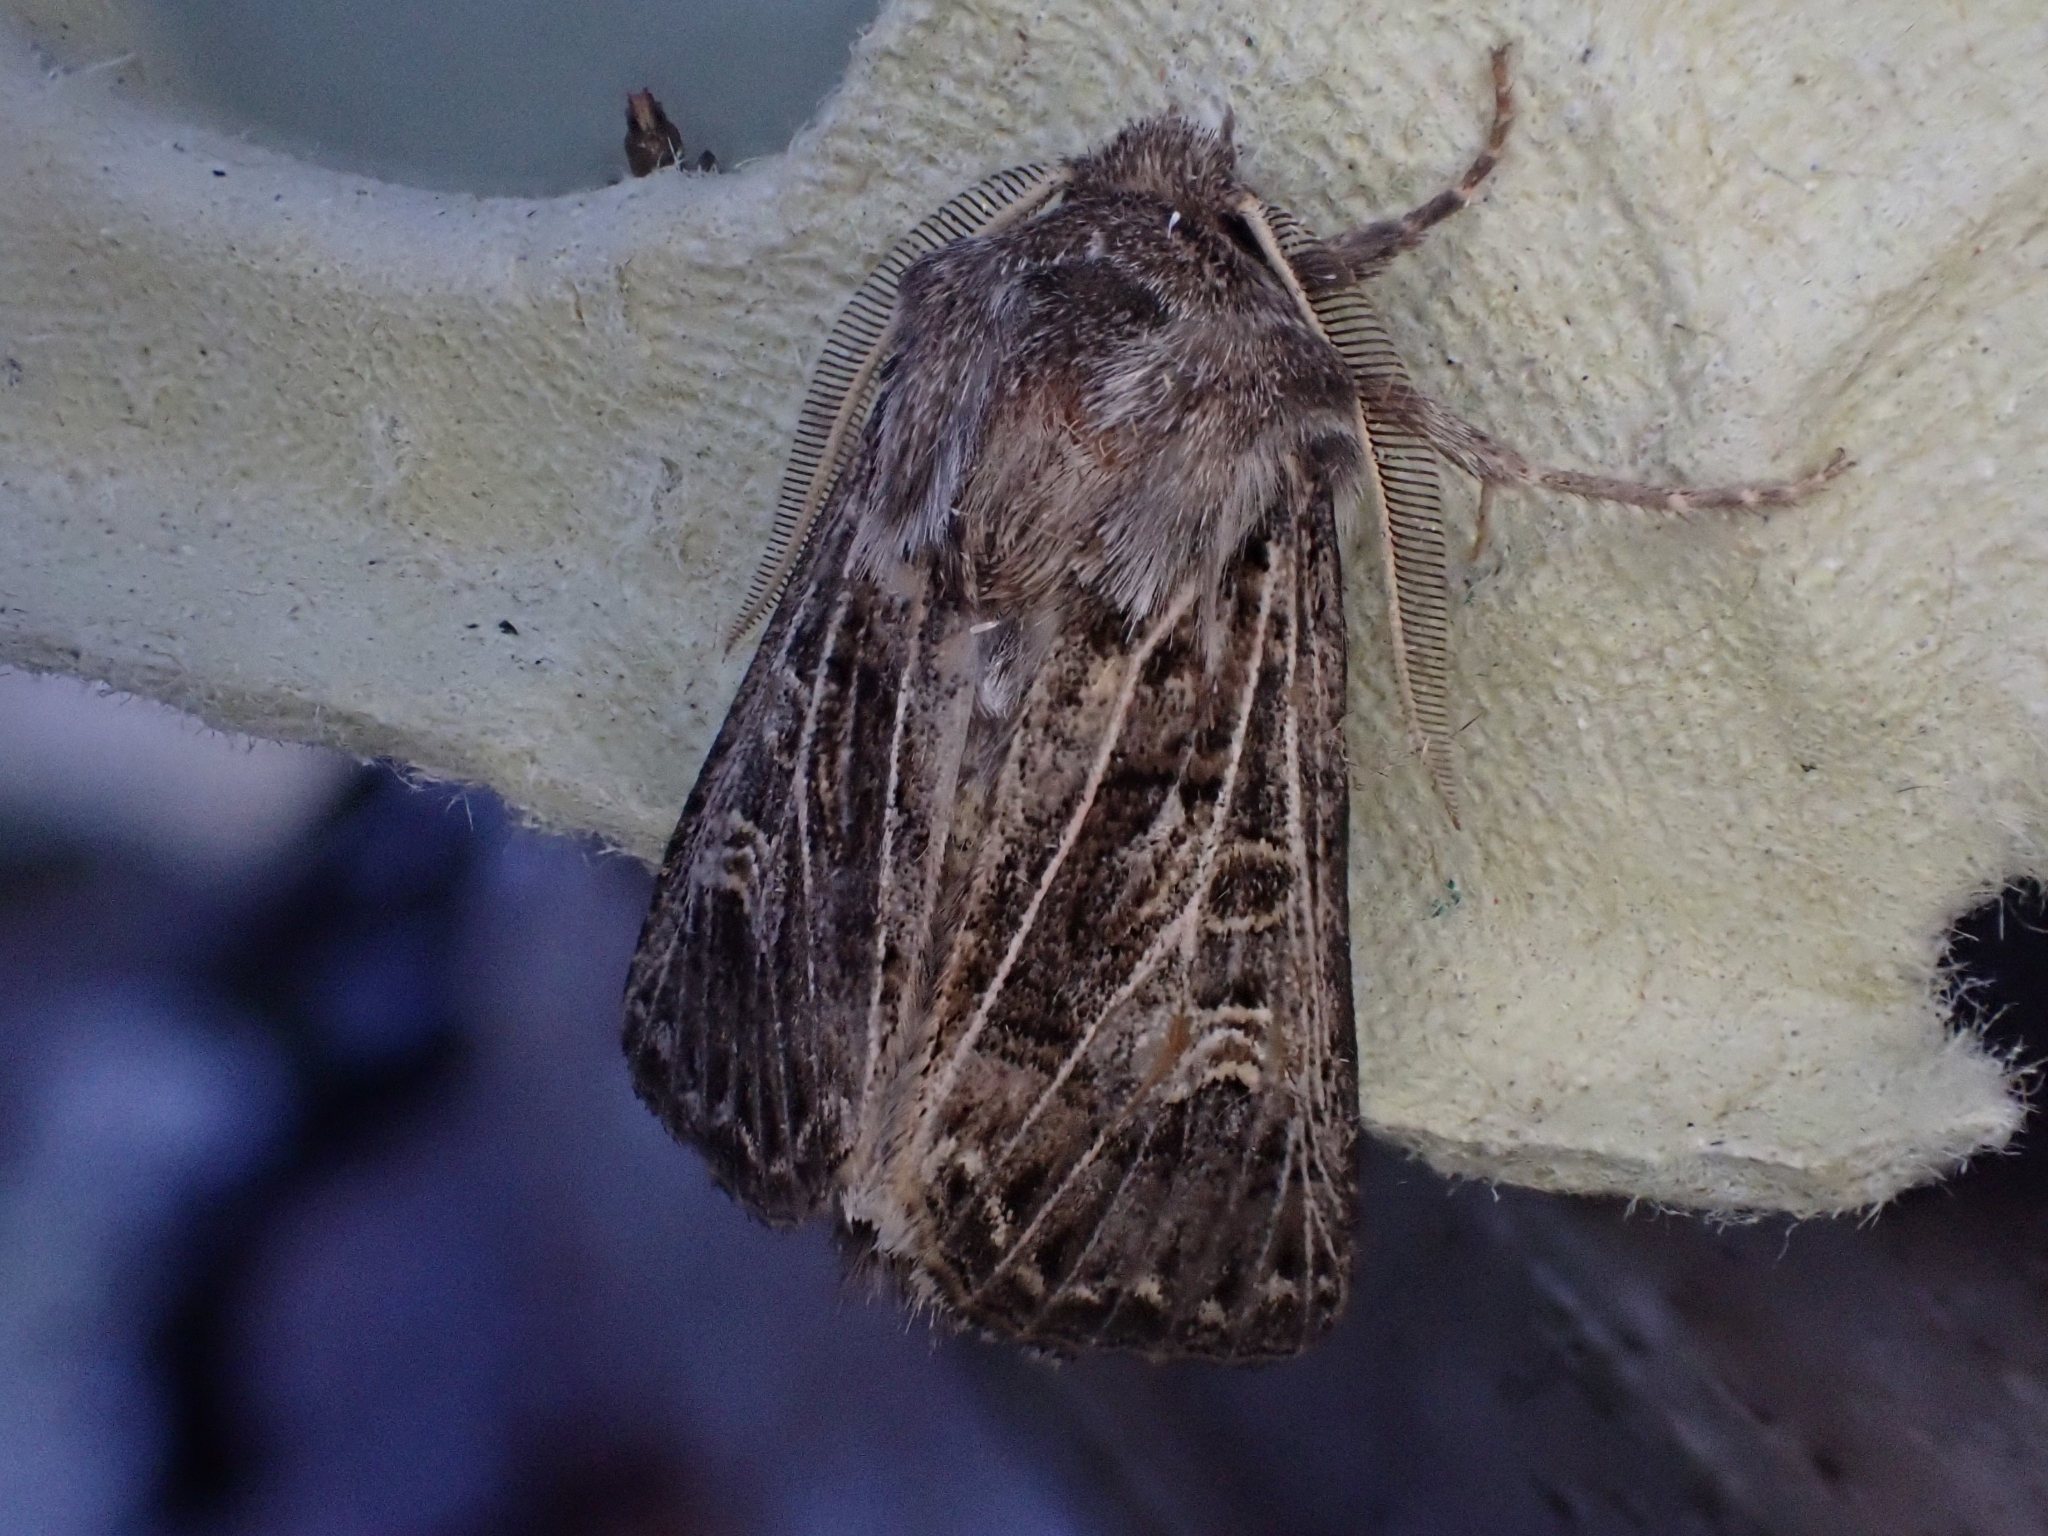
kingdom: Animalia
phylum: Arthropoda
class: Insecta
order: Lepidoptera
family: Noctuidae
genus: Tholera
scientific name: Tholera decimalis
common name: Feathered gothic
